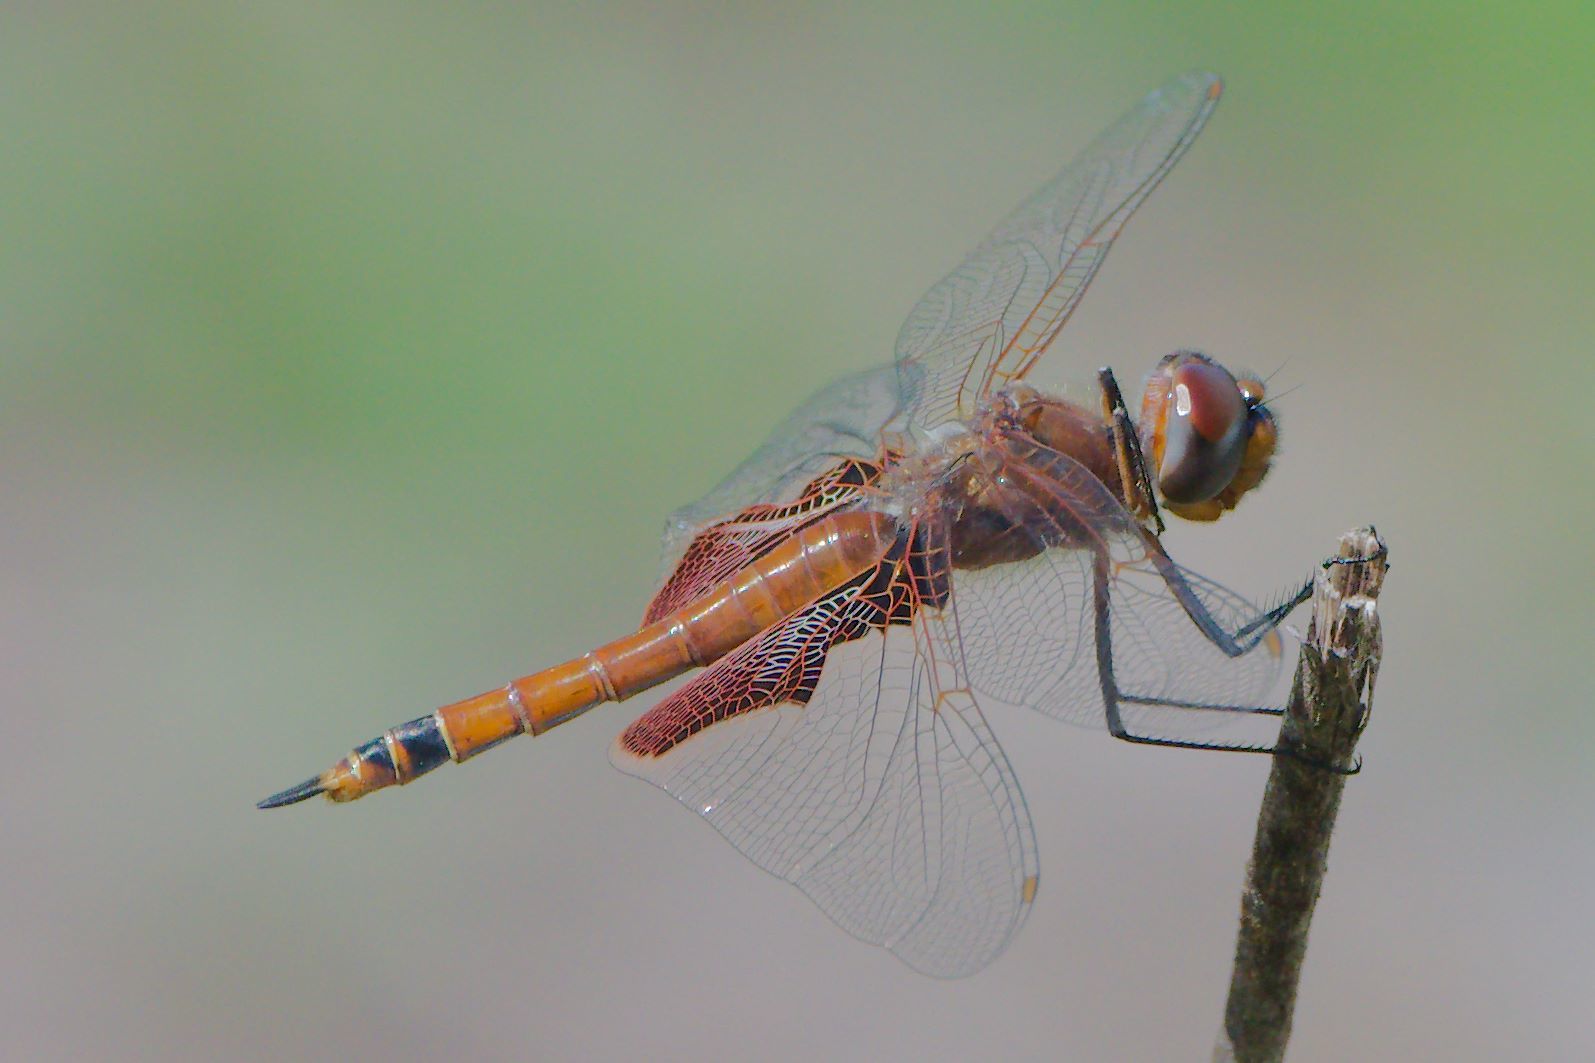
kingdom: Animalia
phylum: Arthropoda
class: Insecta
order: Odonata
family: Libellulidae
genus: Tramea
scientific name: Tramea carolina
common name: Carolina saddlebags
